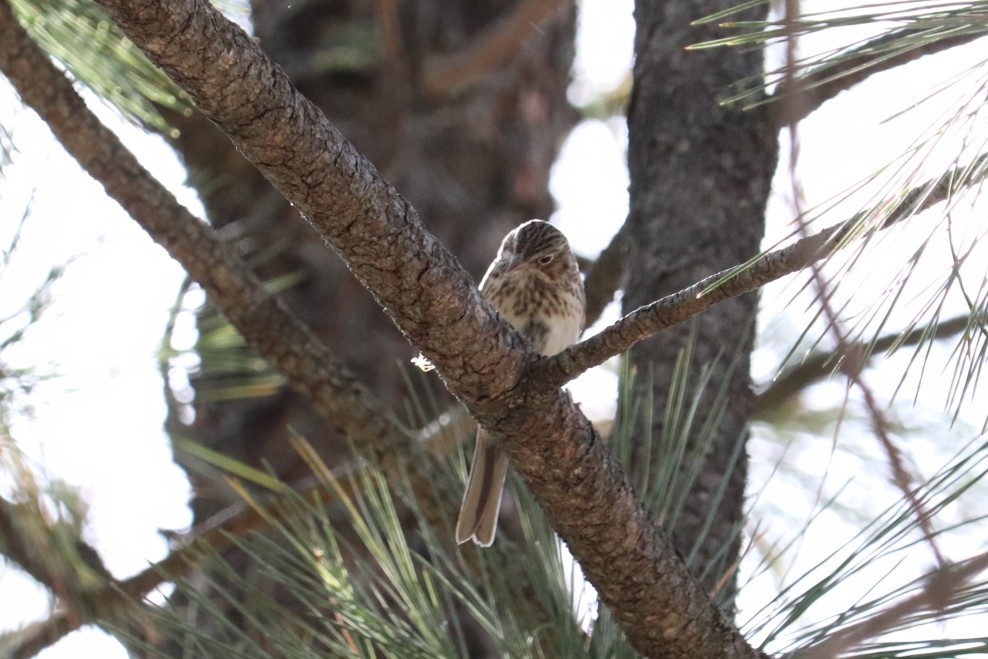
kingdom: Animalia
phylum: Chordata
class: Aves
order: Passeriformes
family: Passerellidae
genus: Pooecetes
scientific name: Pooecetes gramineus
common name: Vesper sparrow
